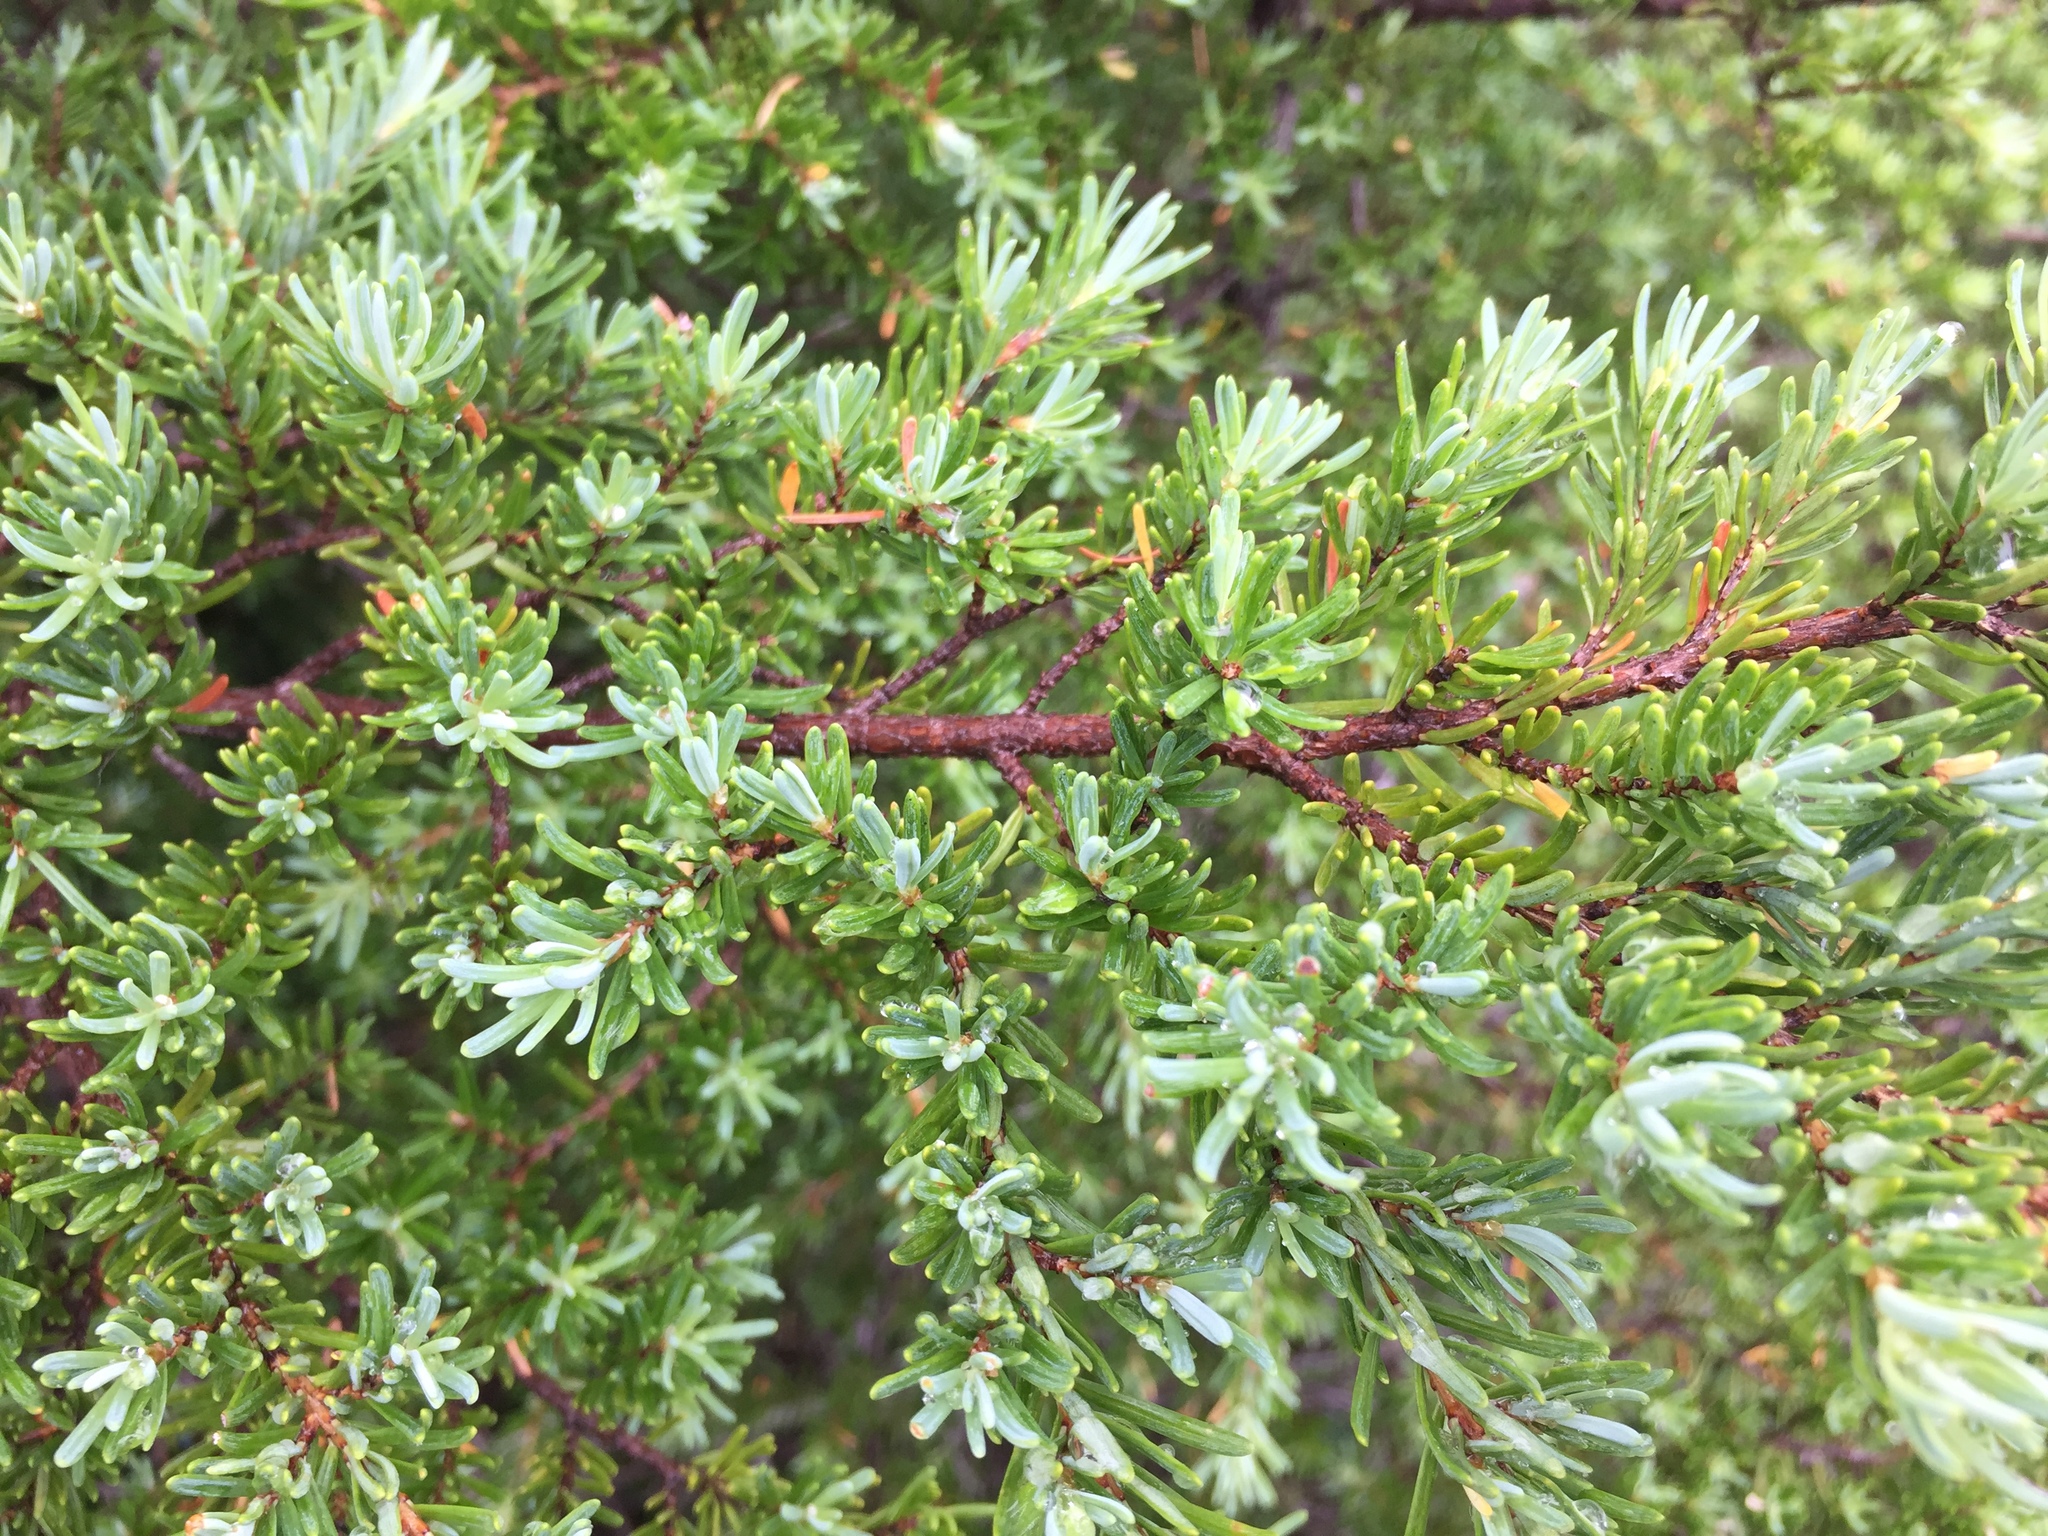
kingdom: Plantae
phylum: Tracheophyta
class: Pinopsida
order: Pinales
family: Pinaceae
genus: Tsuga
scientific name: Tsuga mertensiana
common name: Mountain hemlock
